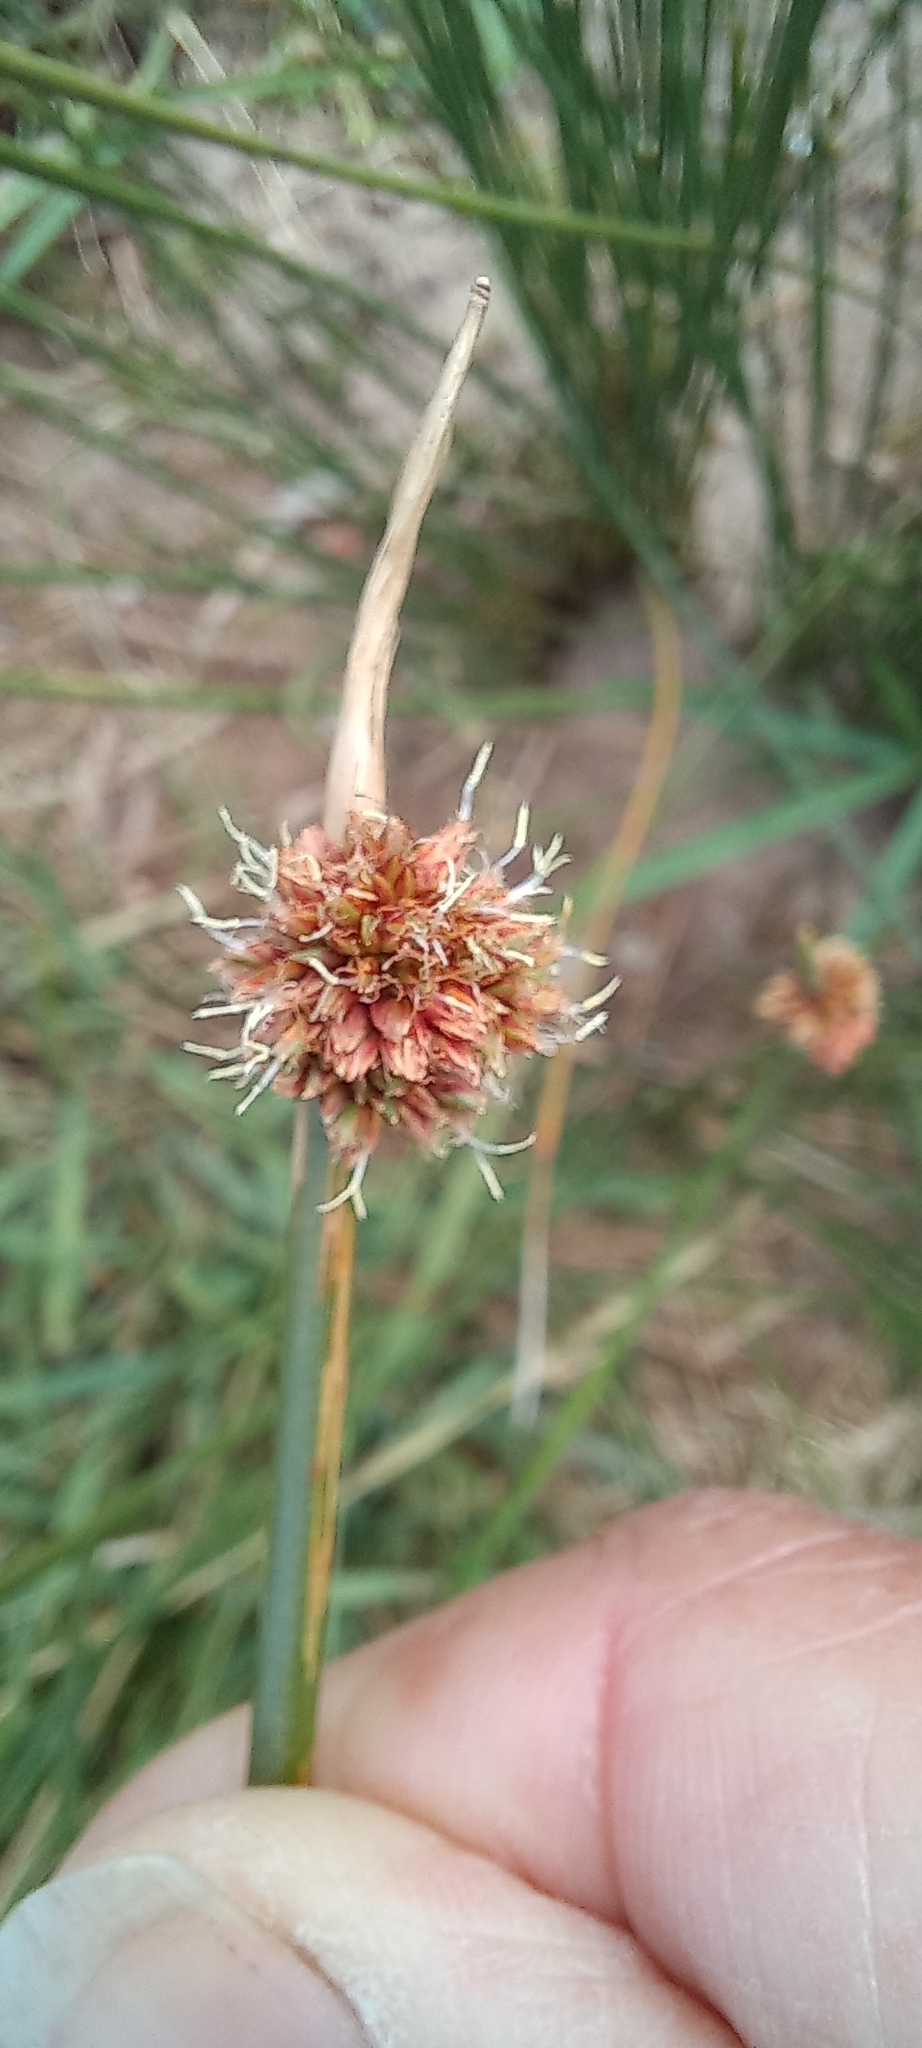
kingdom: Plantae
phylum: Tracheophyta
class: Liliopsida
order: Poales
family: Cyperaceae
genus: Ficinia
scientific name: Ficinia ecklonea
